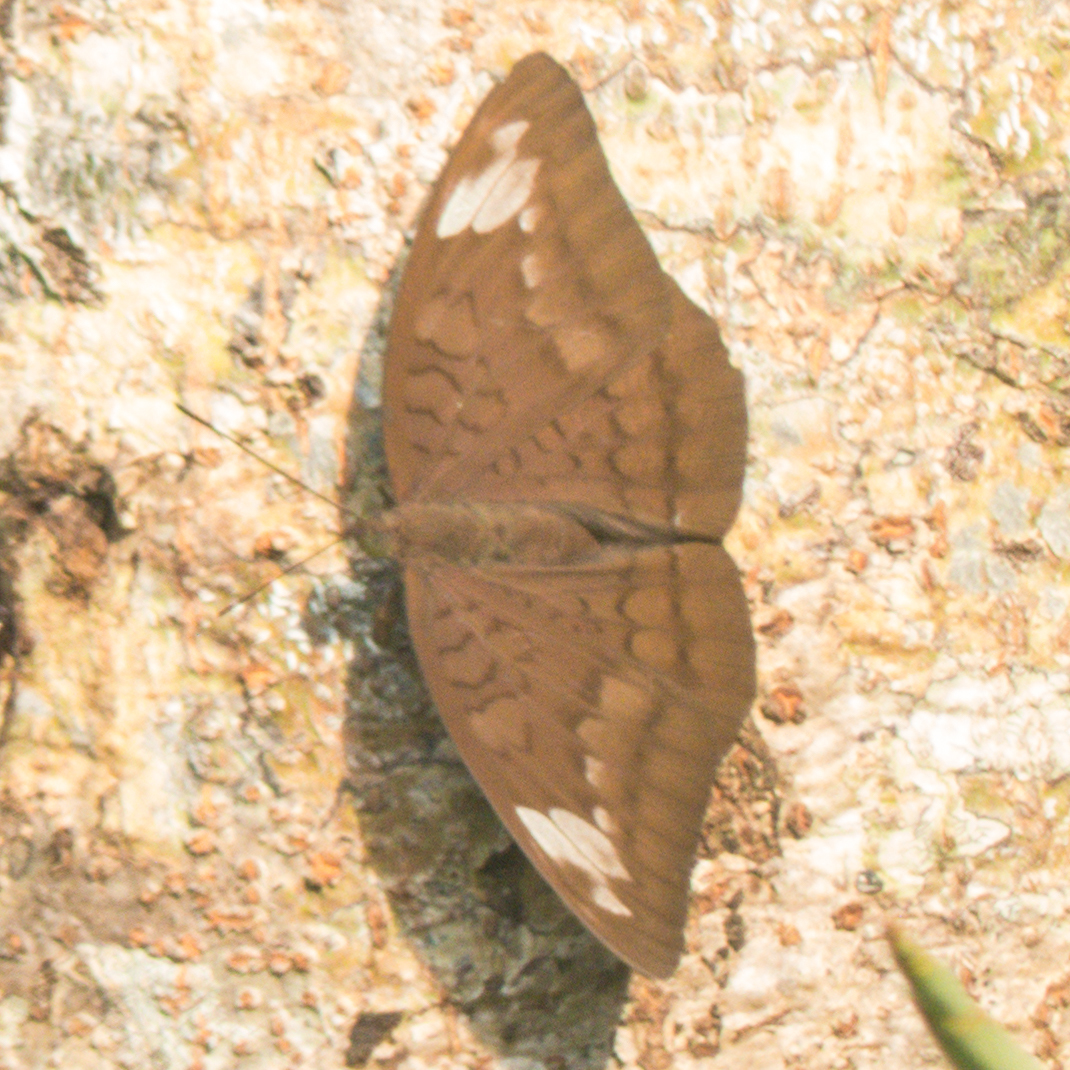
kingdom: Animalia
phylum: Arthropoda
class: Insecta
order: Lepidoptera
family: Nymphalidae
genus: Tanaecia
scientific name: Tanaecia julii
